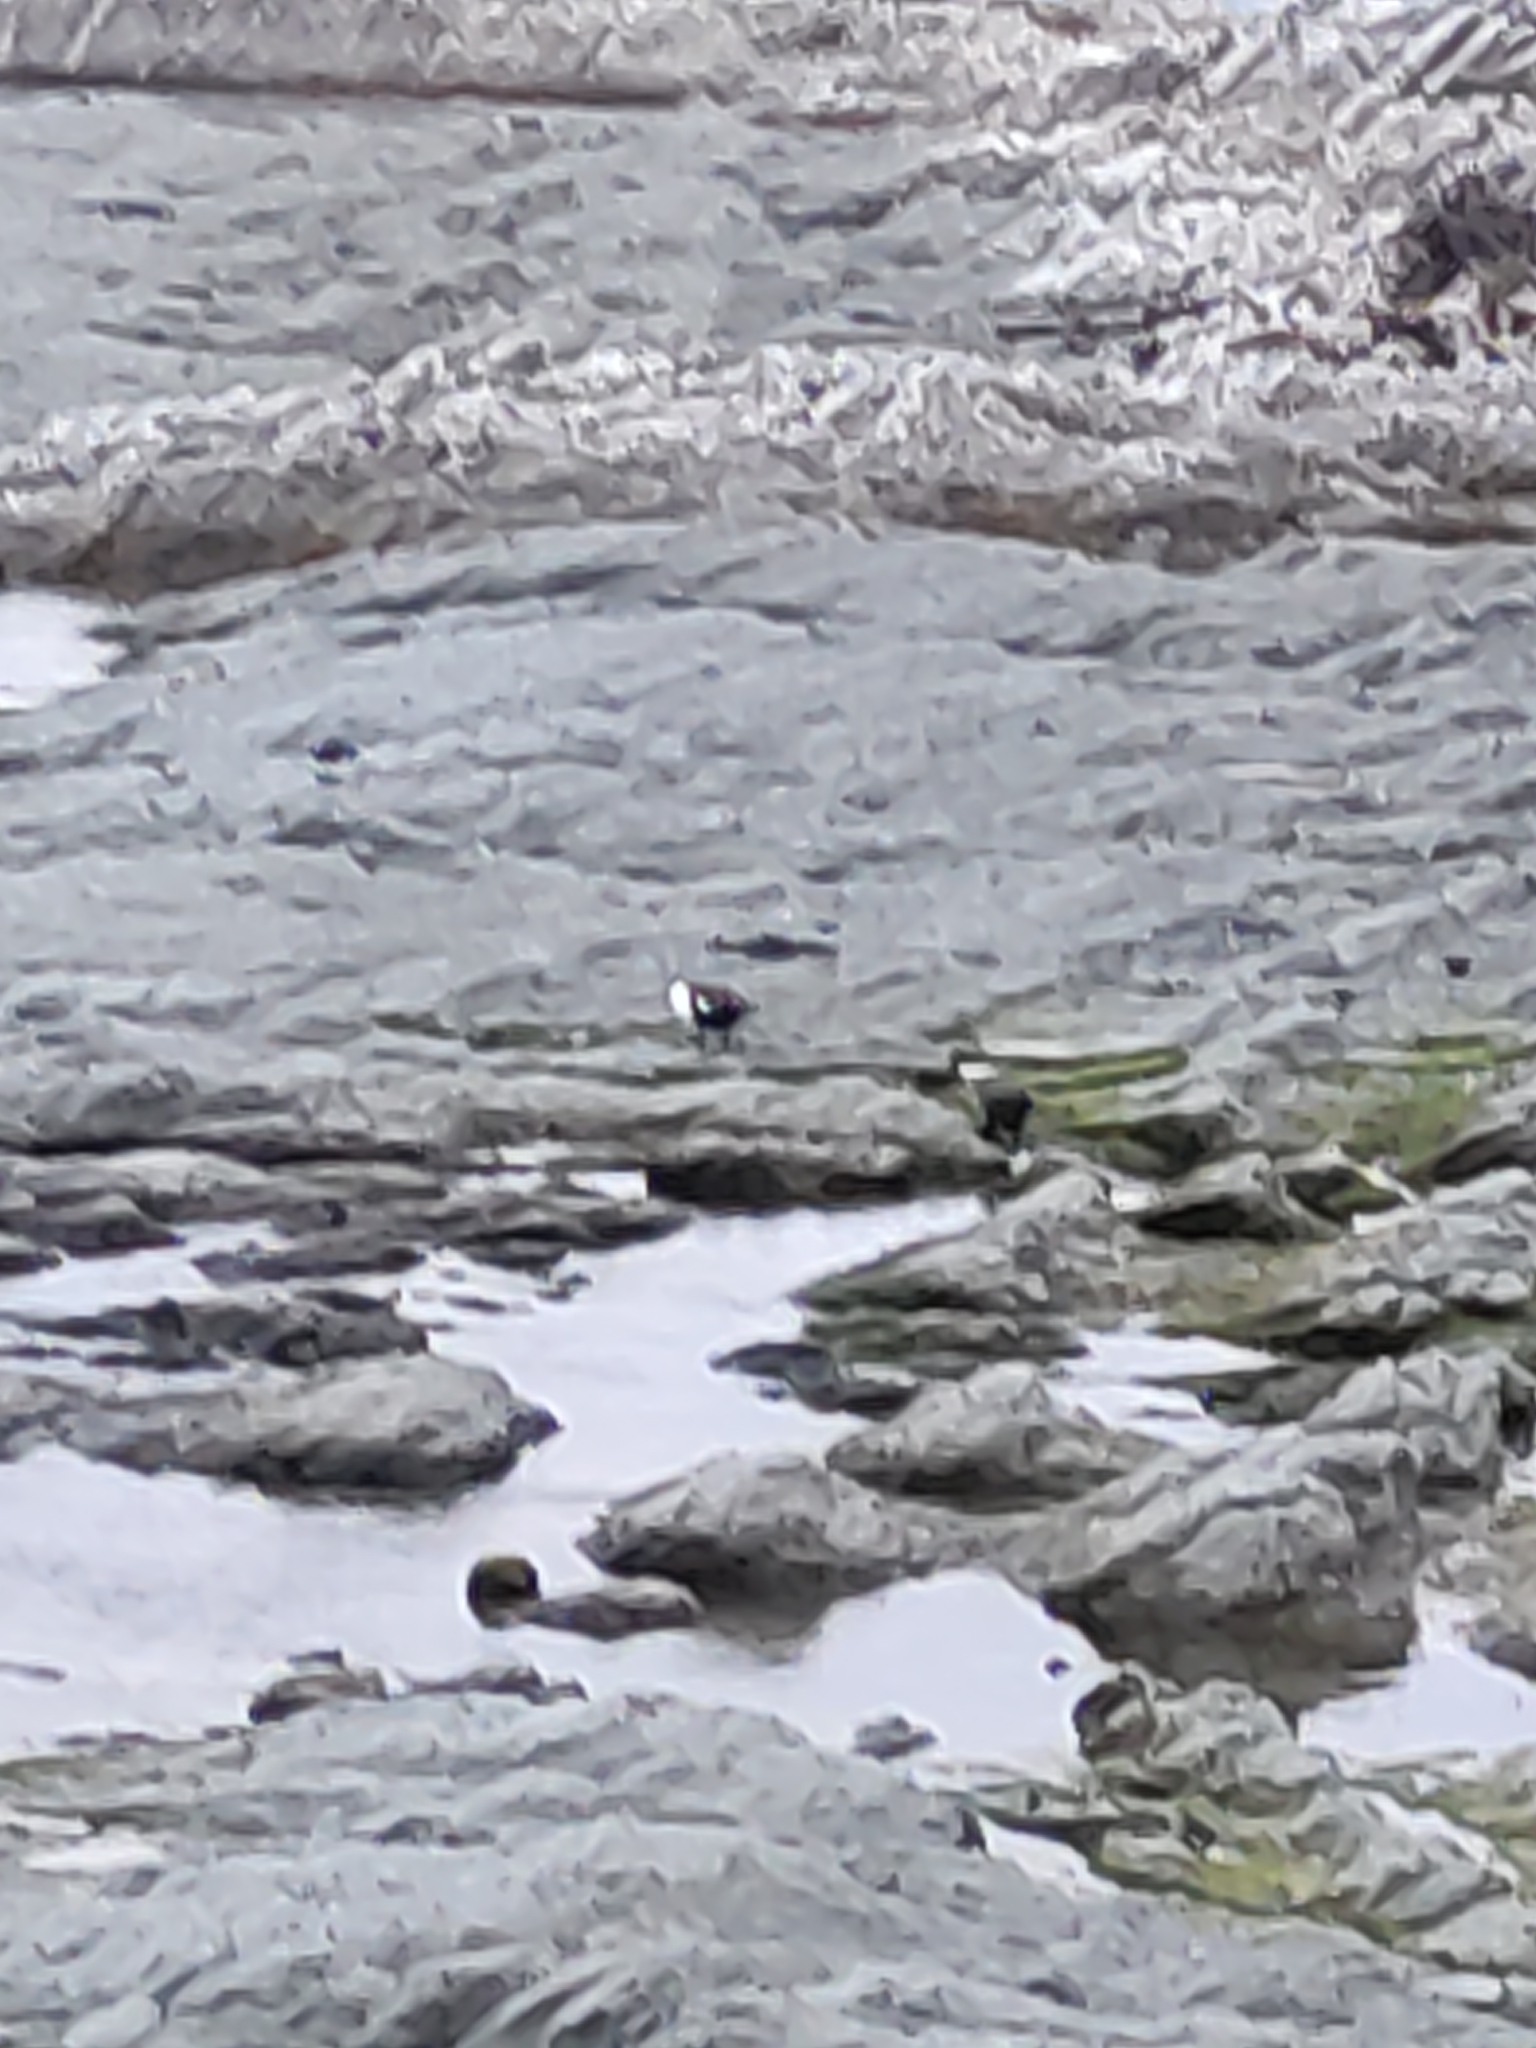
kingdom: Animalia
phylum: Chordata
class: Aves
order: Anseriformes
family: Anatidae
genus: Tadorna
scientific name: Tadorna variegata
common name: Paradise shelduck
